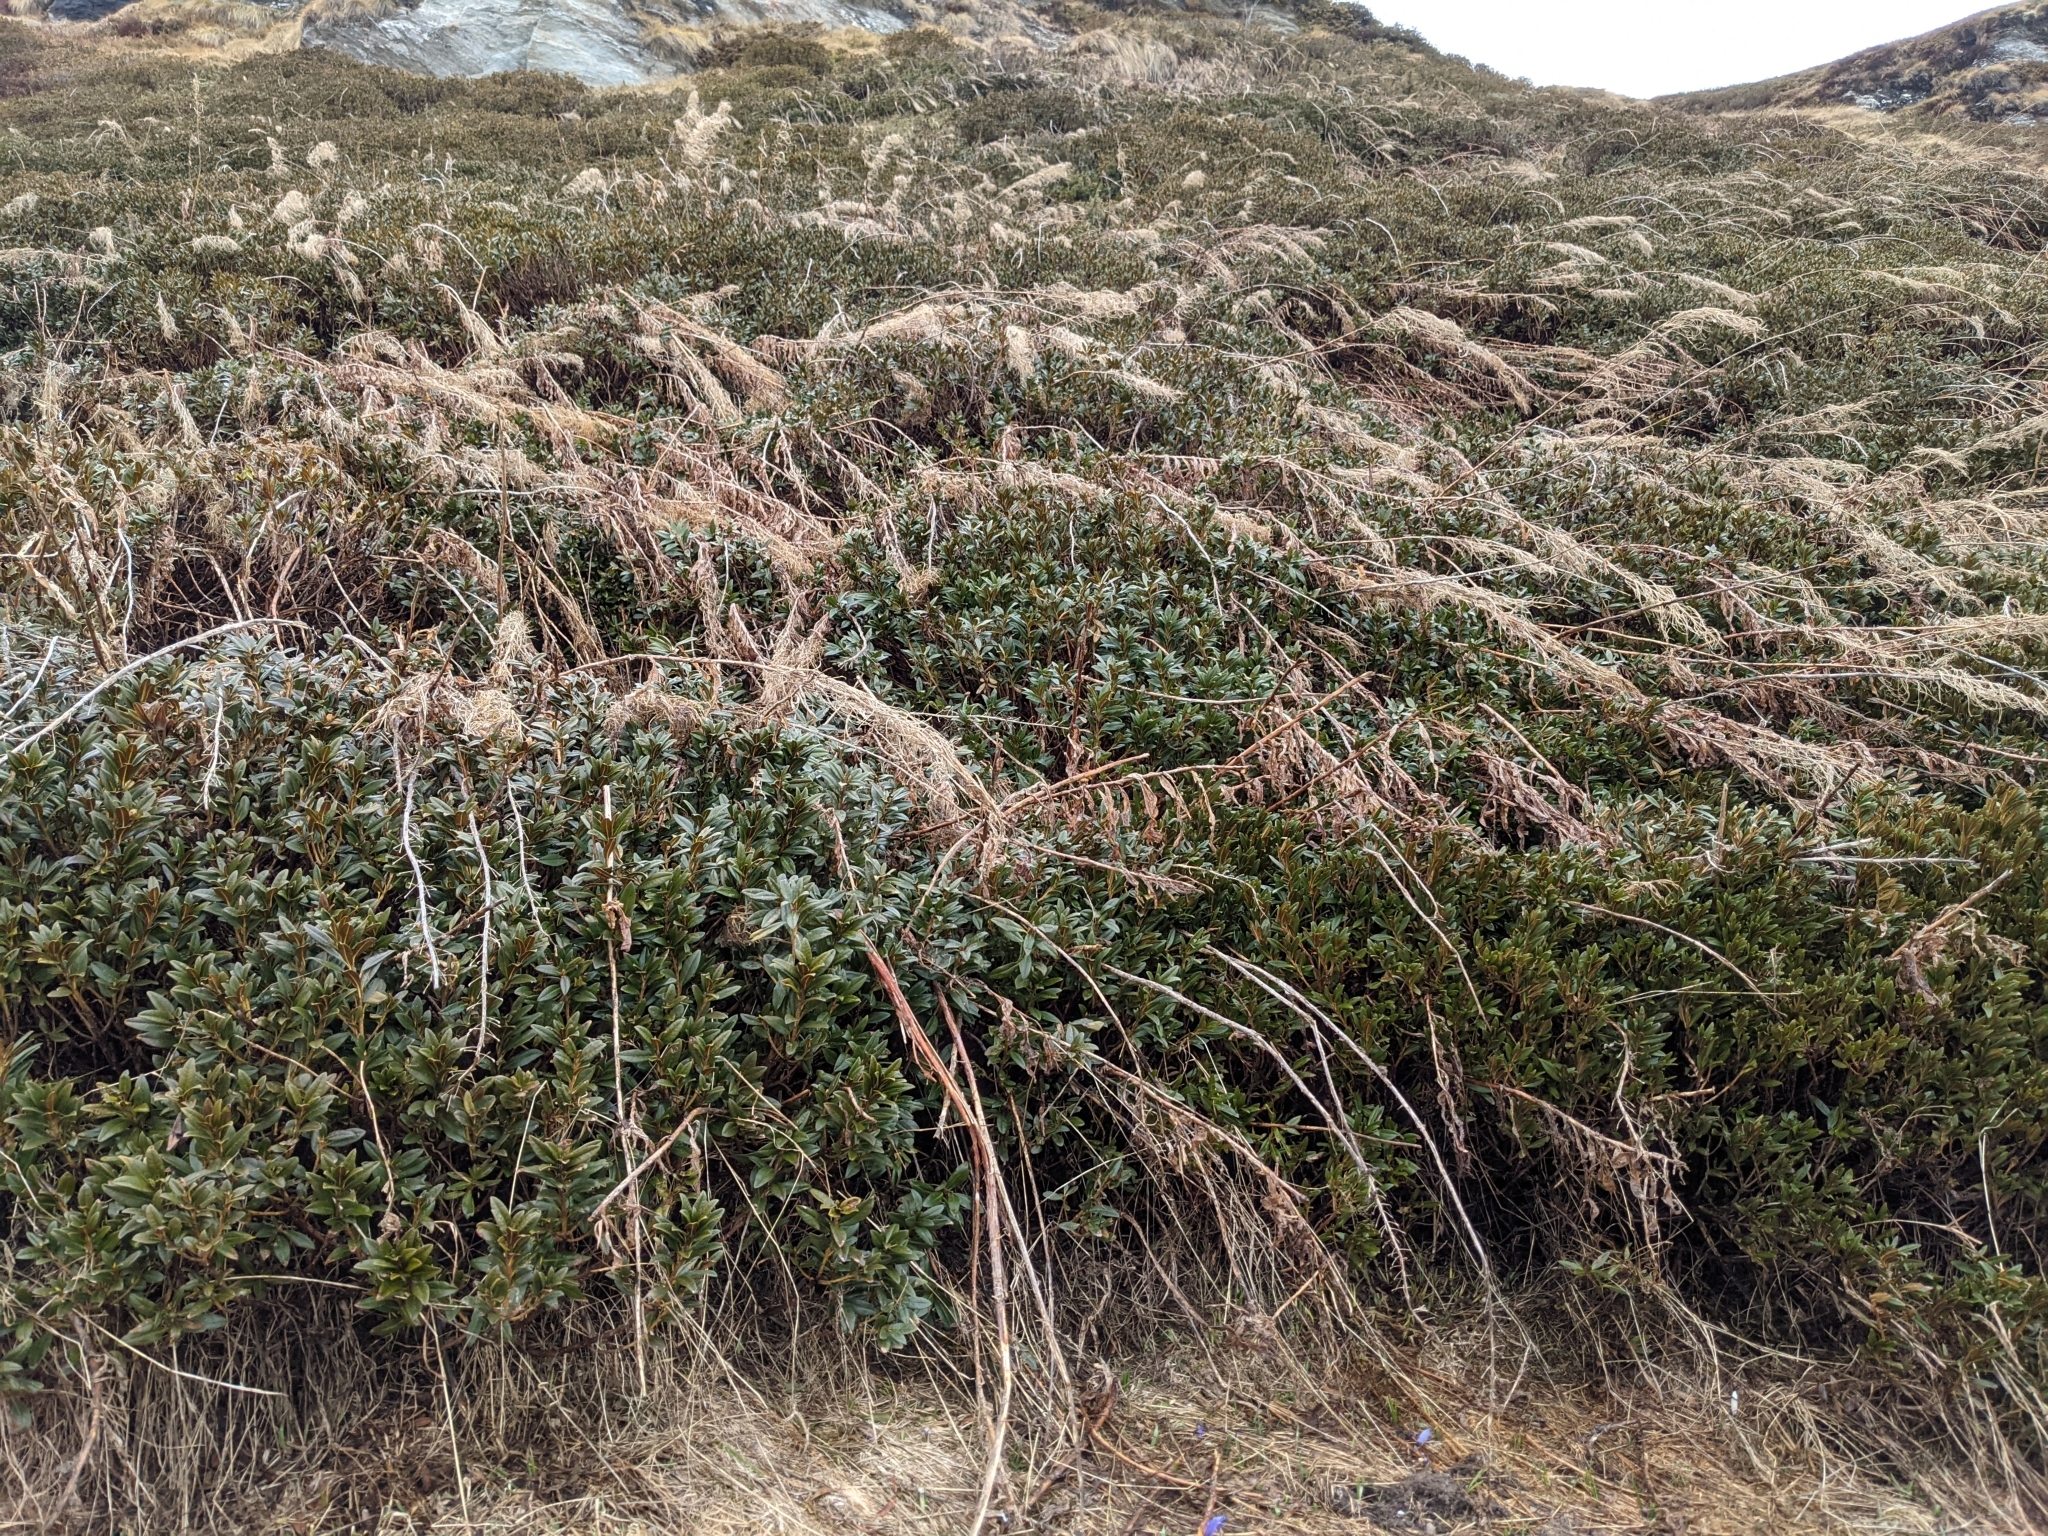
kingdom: Plantae
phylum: Tracheophyta
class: Magnoliopsida
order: Ericales
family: Ericaceae
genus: Rhododendron
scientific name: Rhododendron ferrugineum
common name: Alpenrose
